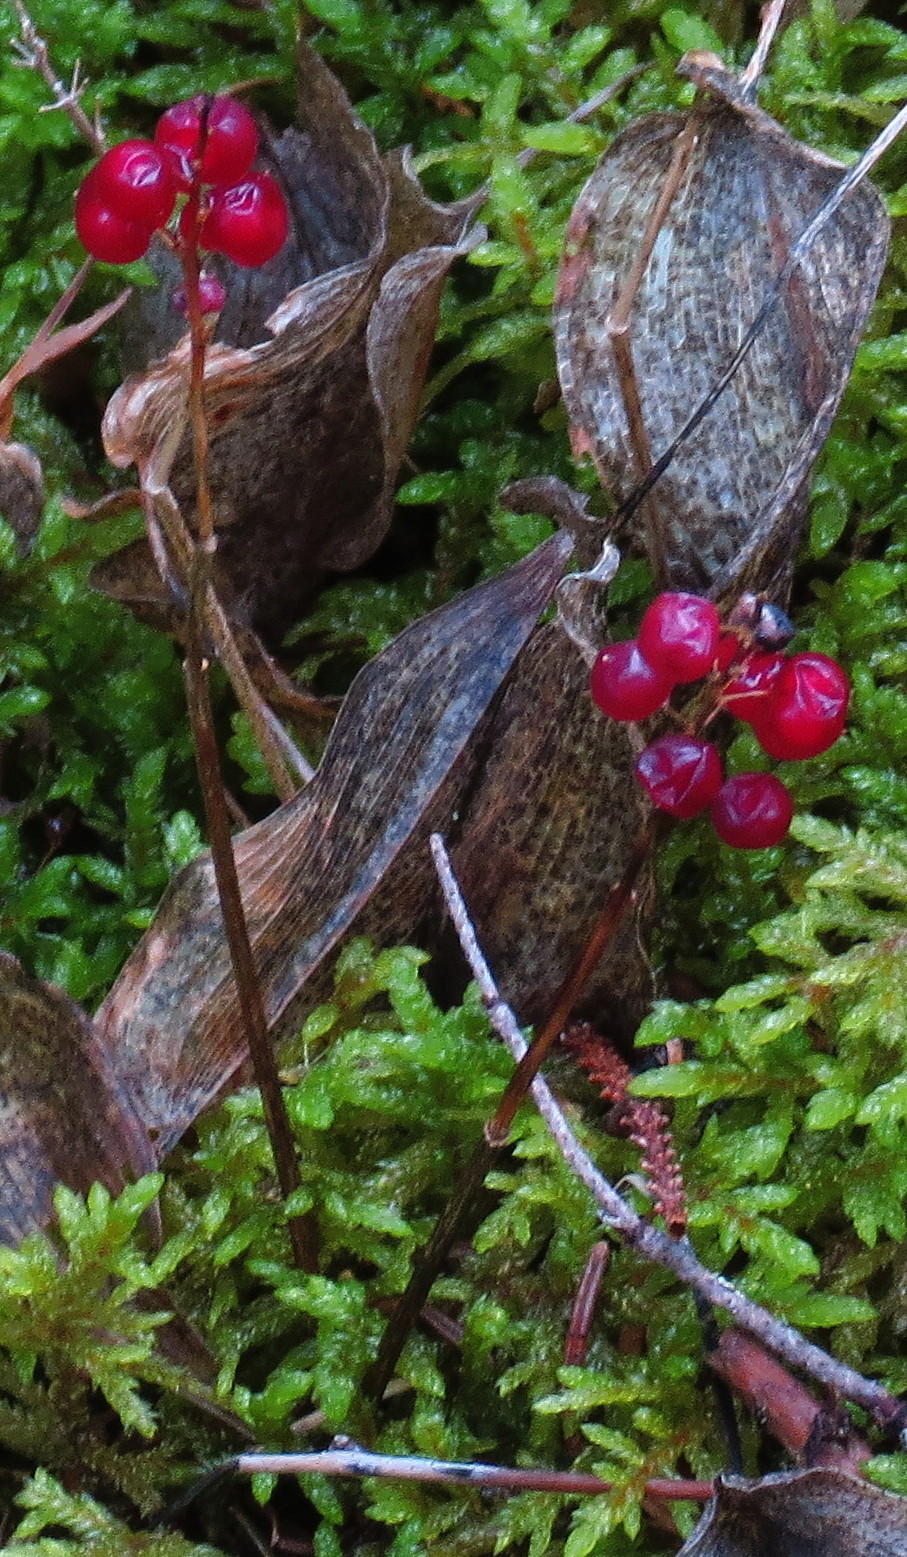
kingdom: Plantae
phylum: Tracheophyta
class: Liliopsida
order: Asparagales
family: Asparagaceae
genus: Maianthemum
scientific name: Maianthemum canadense
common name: False lily-of-the-valley
